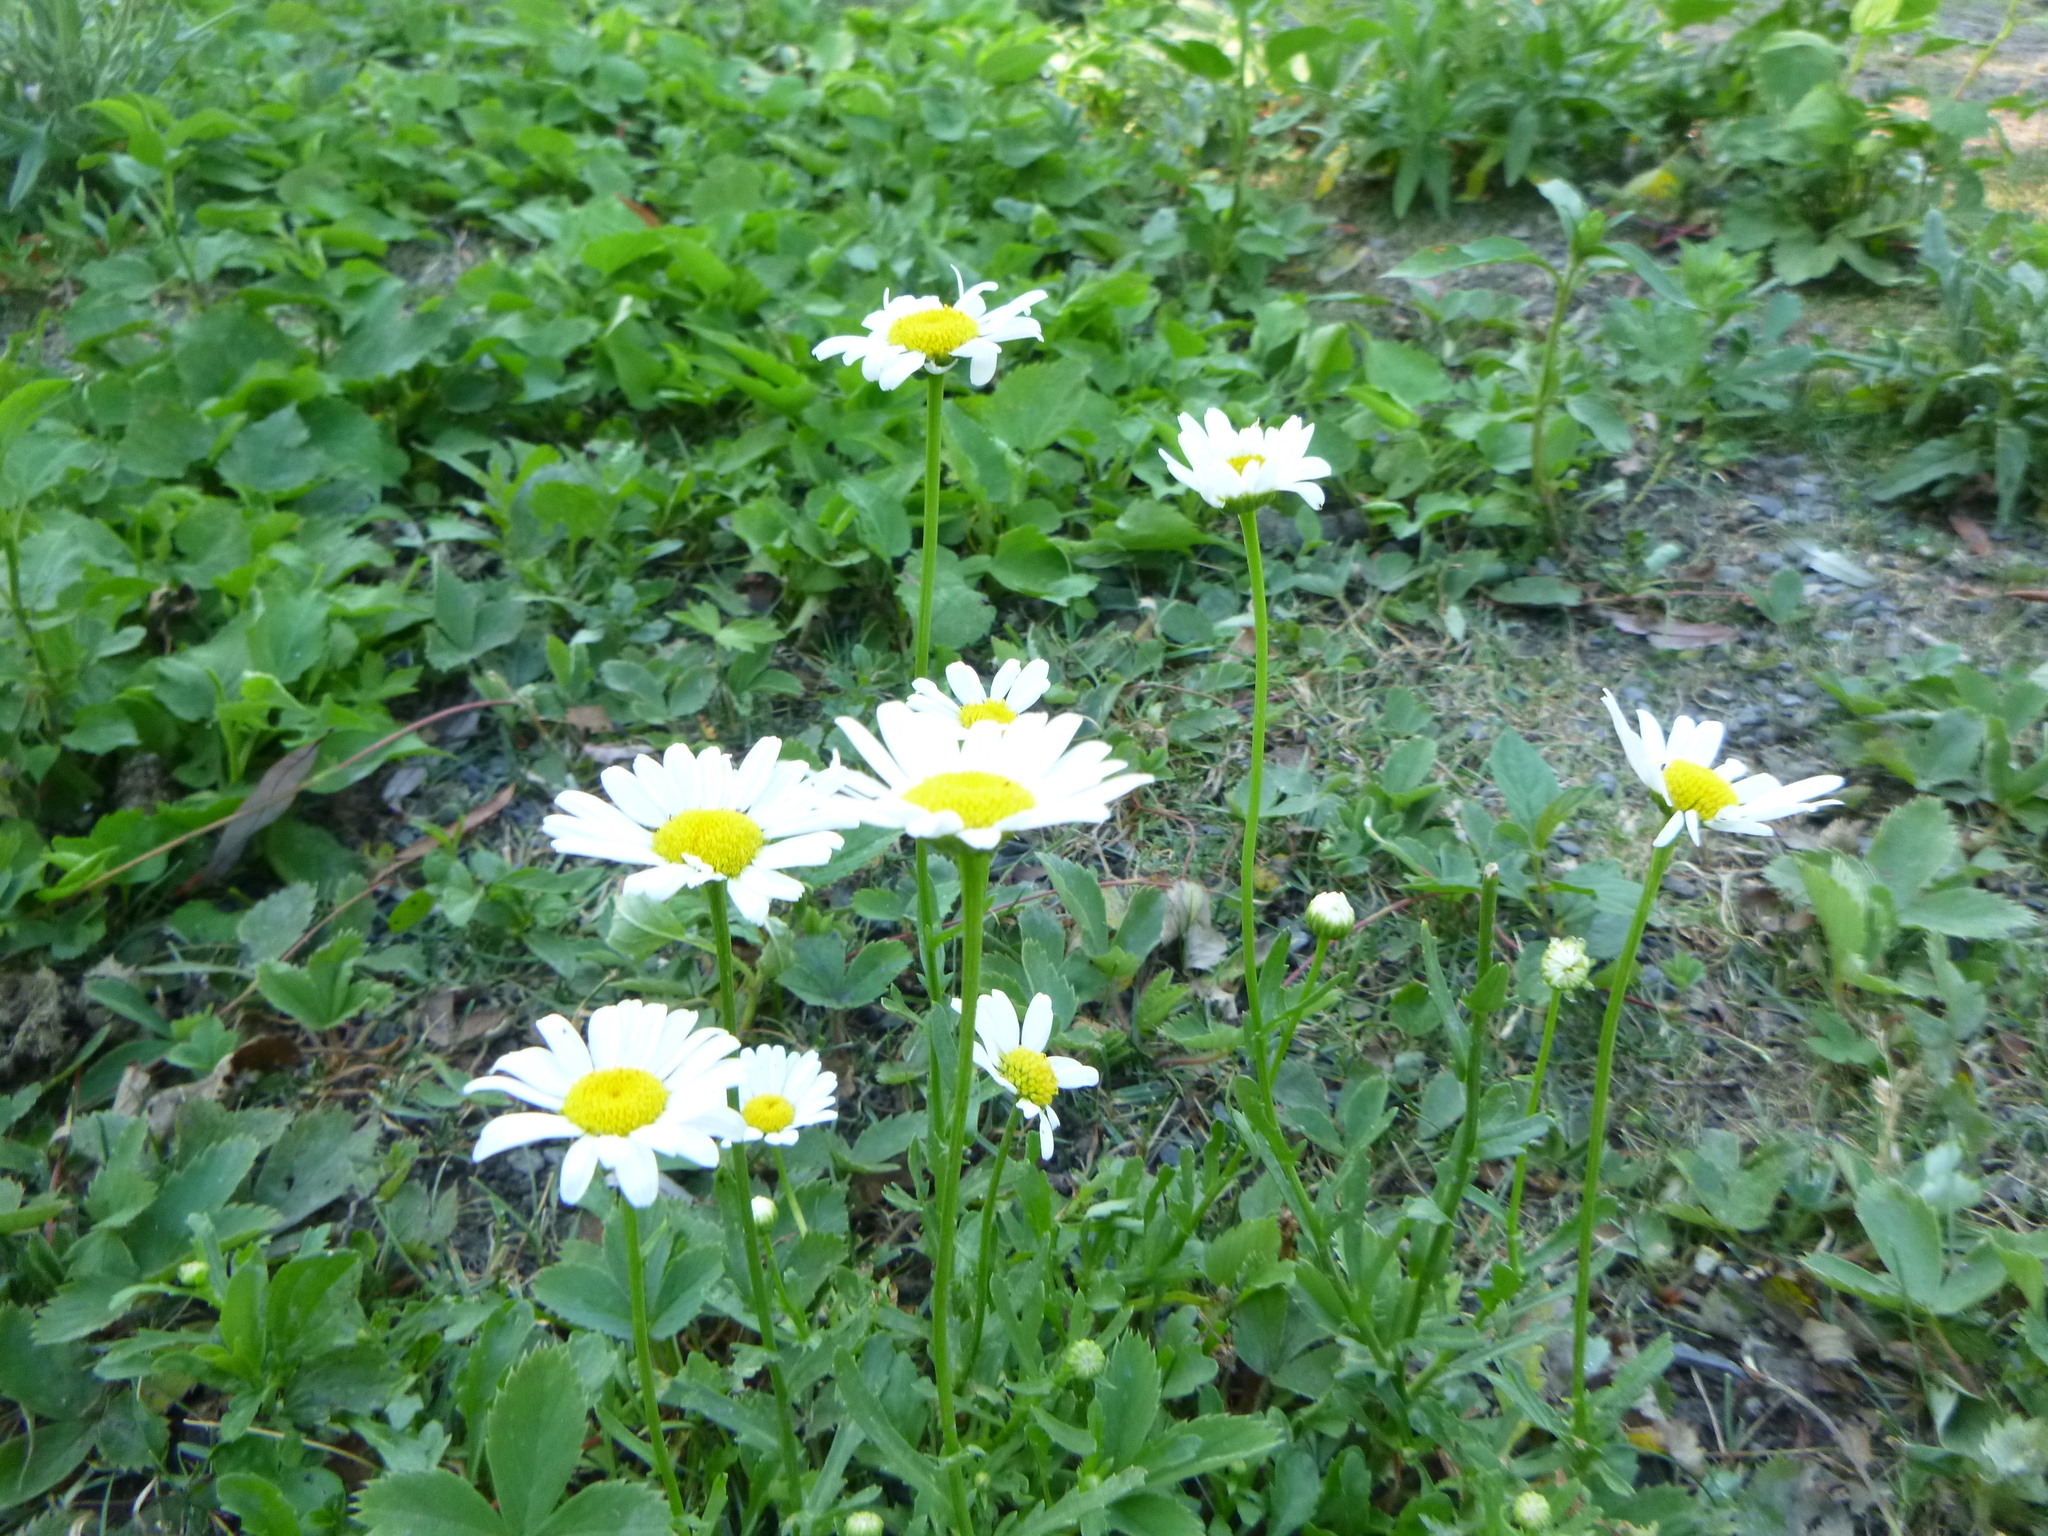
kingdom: Plantae
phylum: Tracheophyta
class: Magnoliopsida
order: Asterales
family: Asteraceae
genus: Leucanthemum
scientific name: Leucanthemum vulgare
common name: Oxeye daisy
